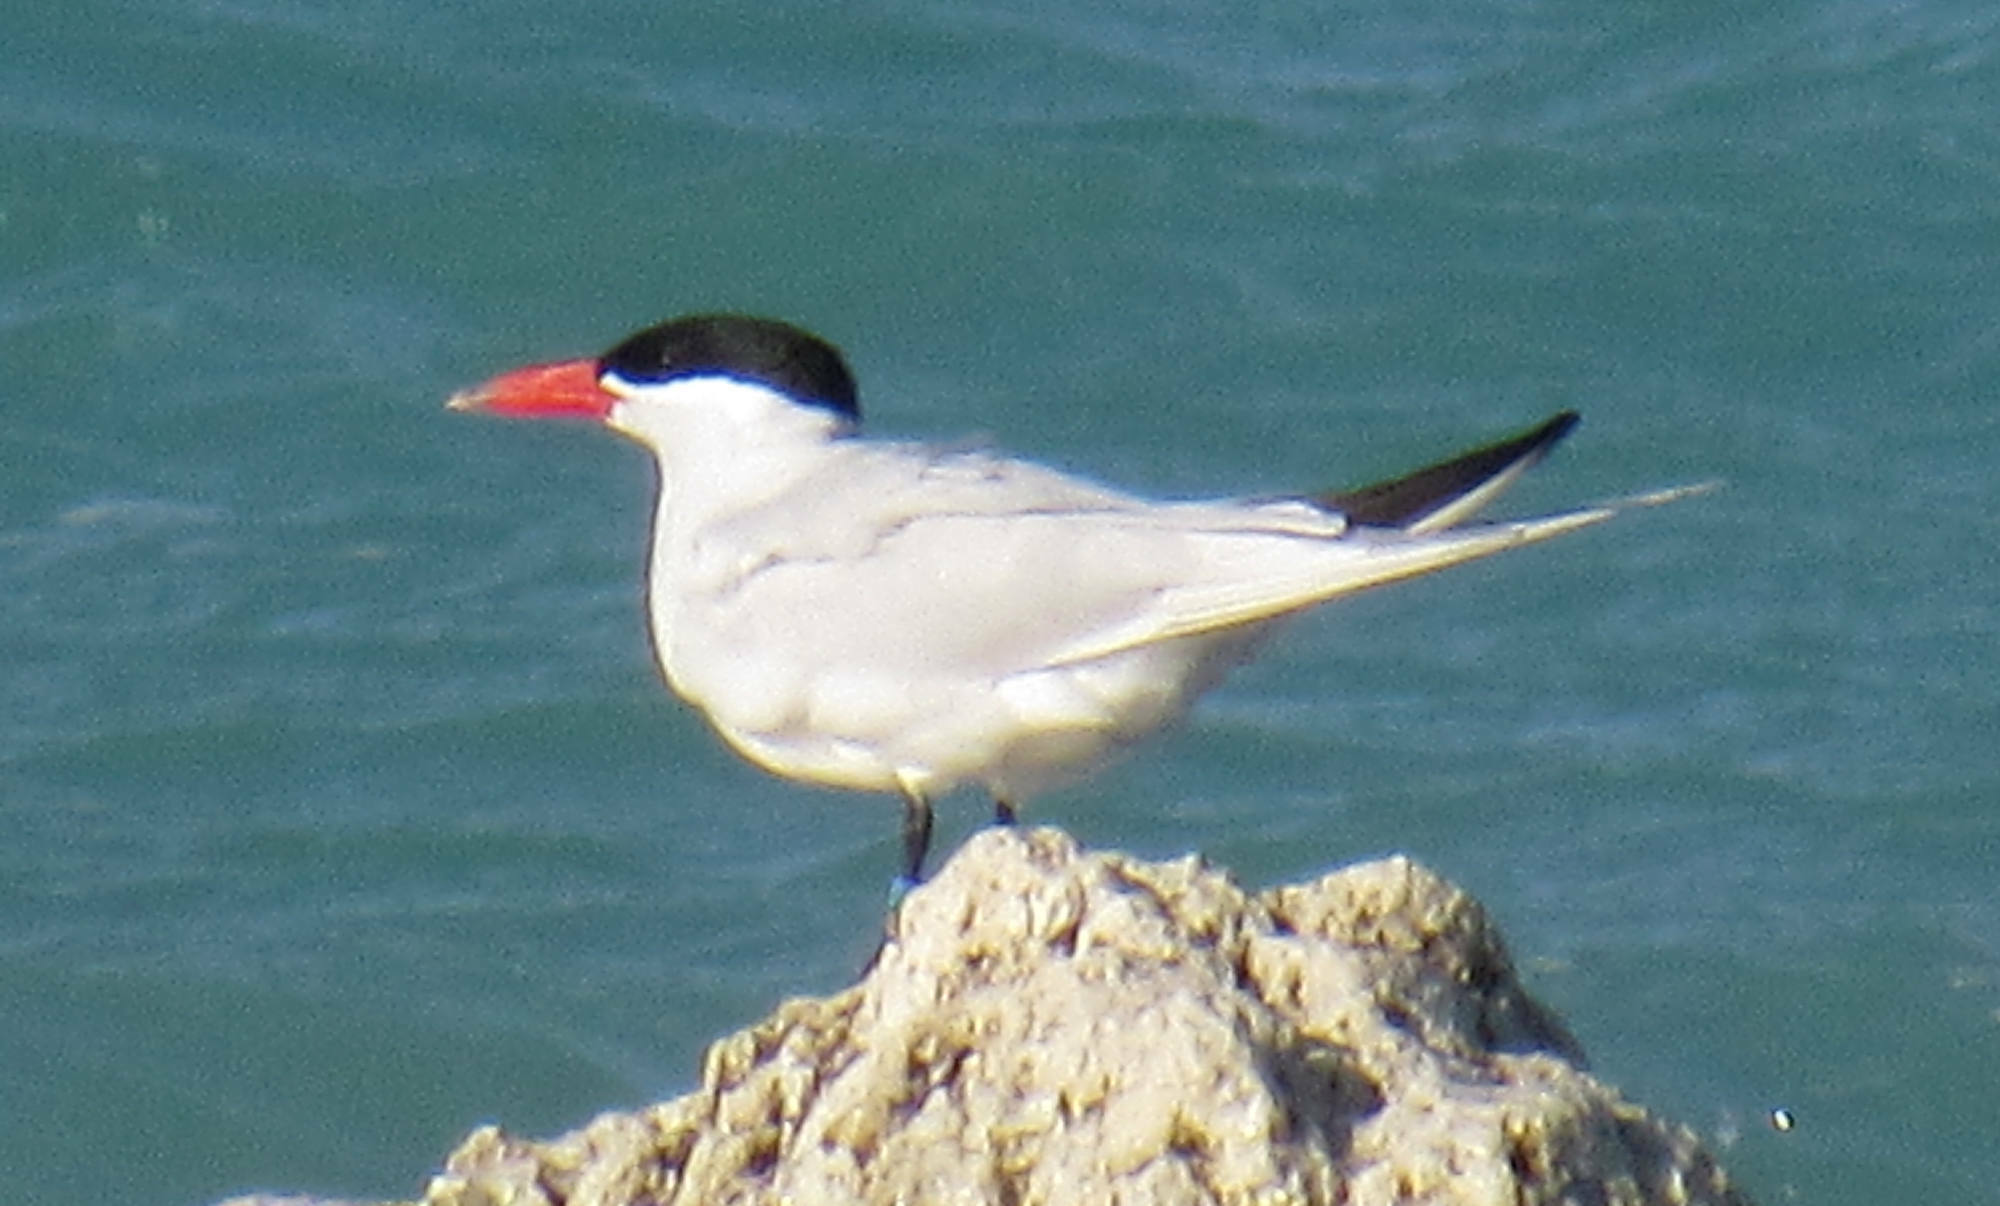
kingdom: Animalia
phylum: Chordata
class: Aves
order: Charadriiformes
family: Laridae
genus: Hydroprogne
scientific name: Hydroprogne caspia
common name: Caspian tern
